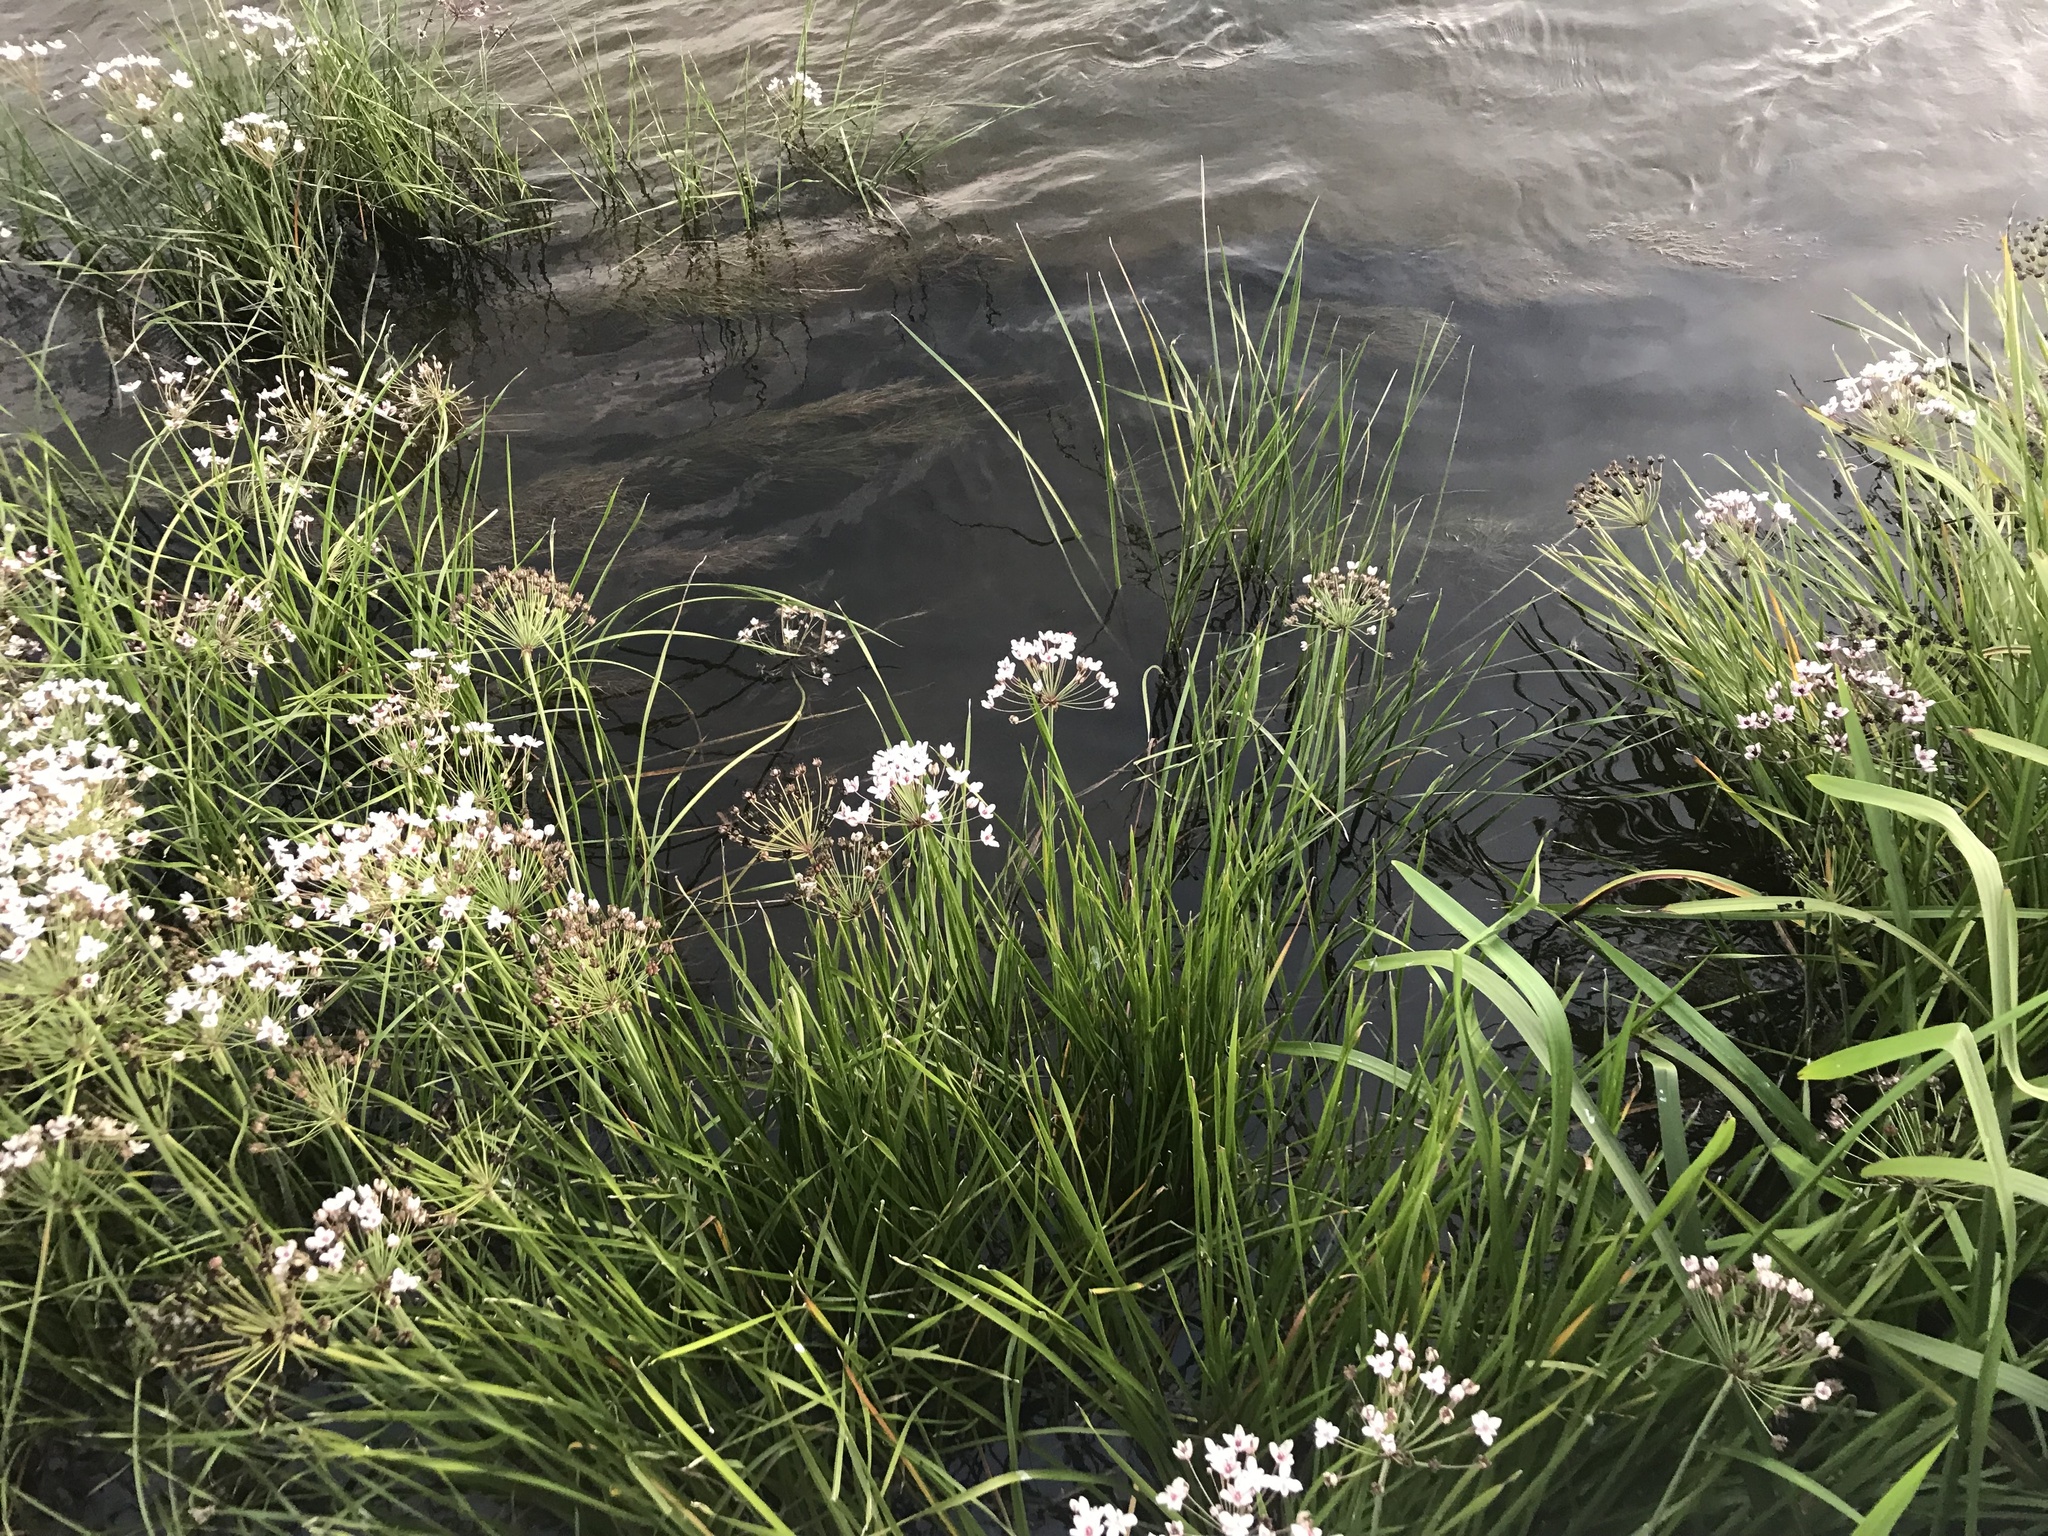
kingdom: Plantae
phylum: Tracheophyta
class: Liliopsida
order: Alismatales
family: Butomaceae
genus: Butomus
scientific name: Butomus umbellatus
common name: Flowering-rush
